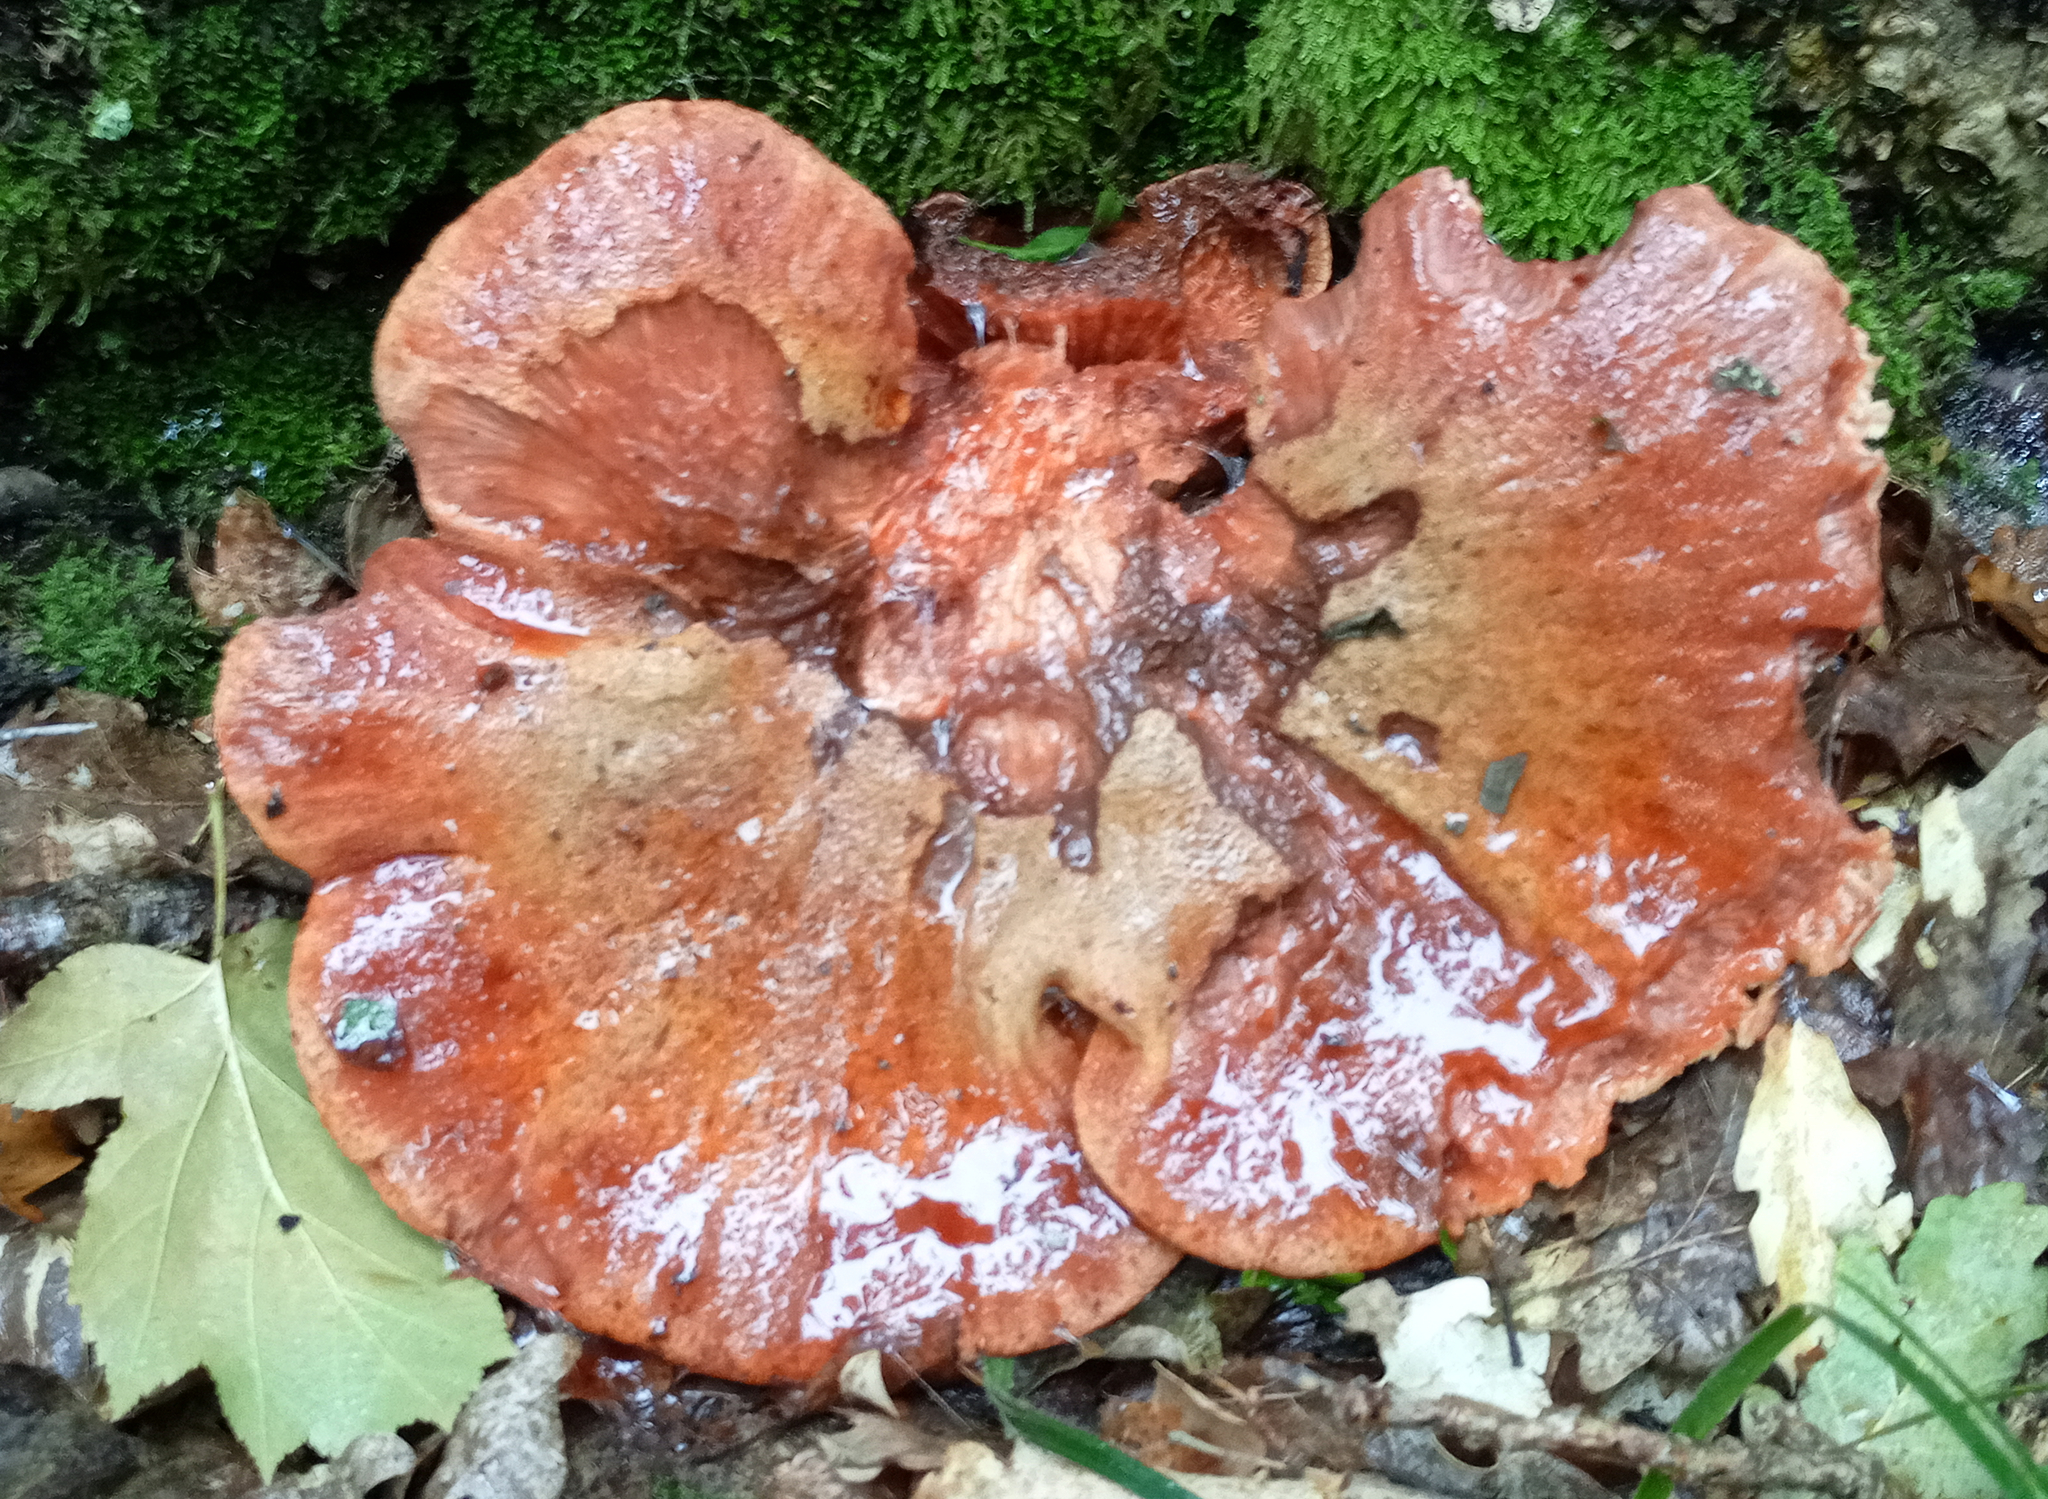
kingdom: Fungi
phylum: Basidiomycota
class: Agaricomycetes
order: Agaricales
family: Fistulinaceae
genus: Fistulina
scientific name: Fistulina hepatica
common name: Beef-steak fungus
